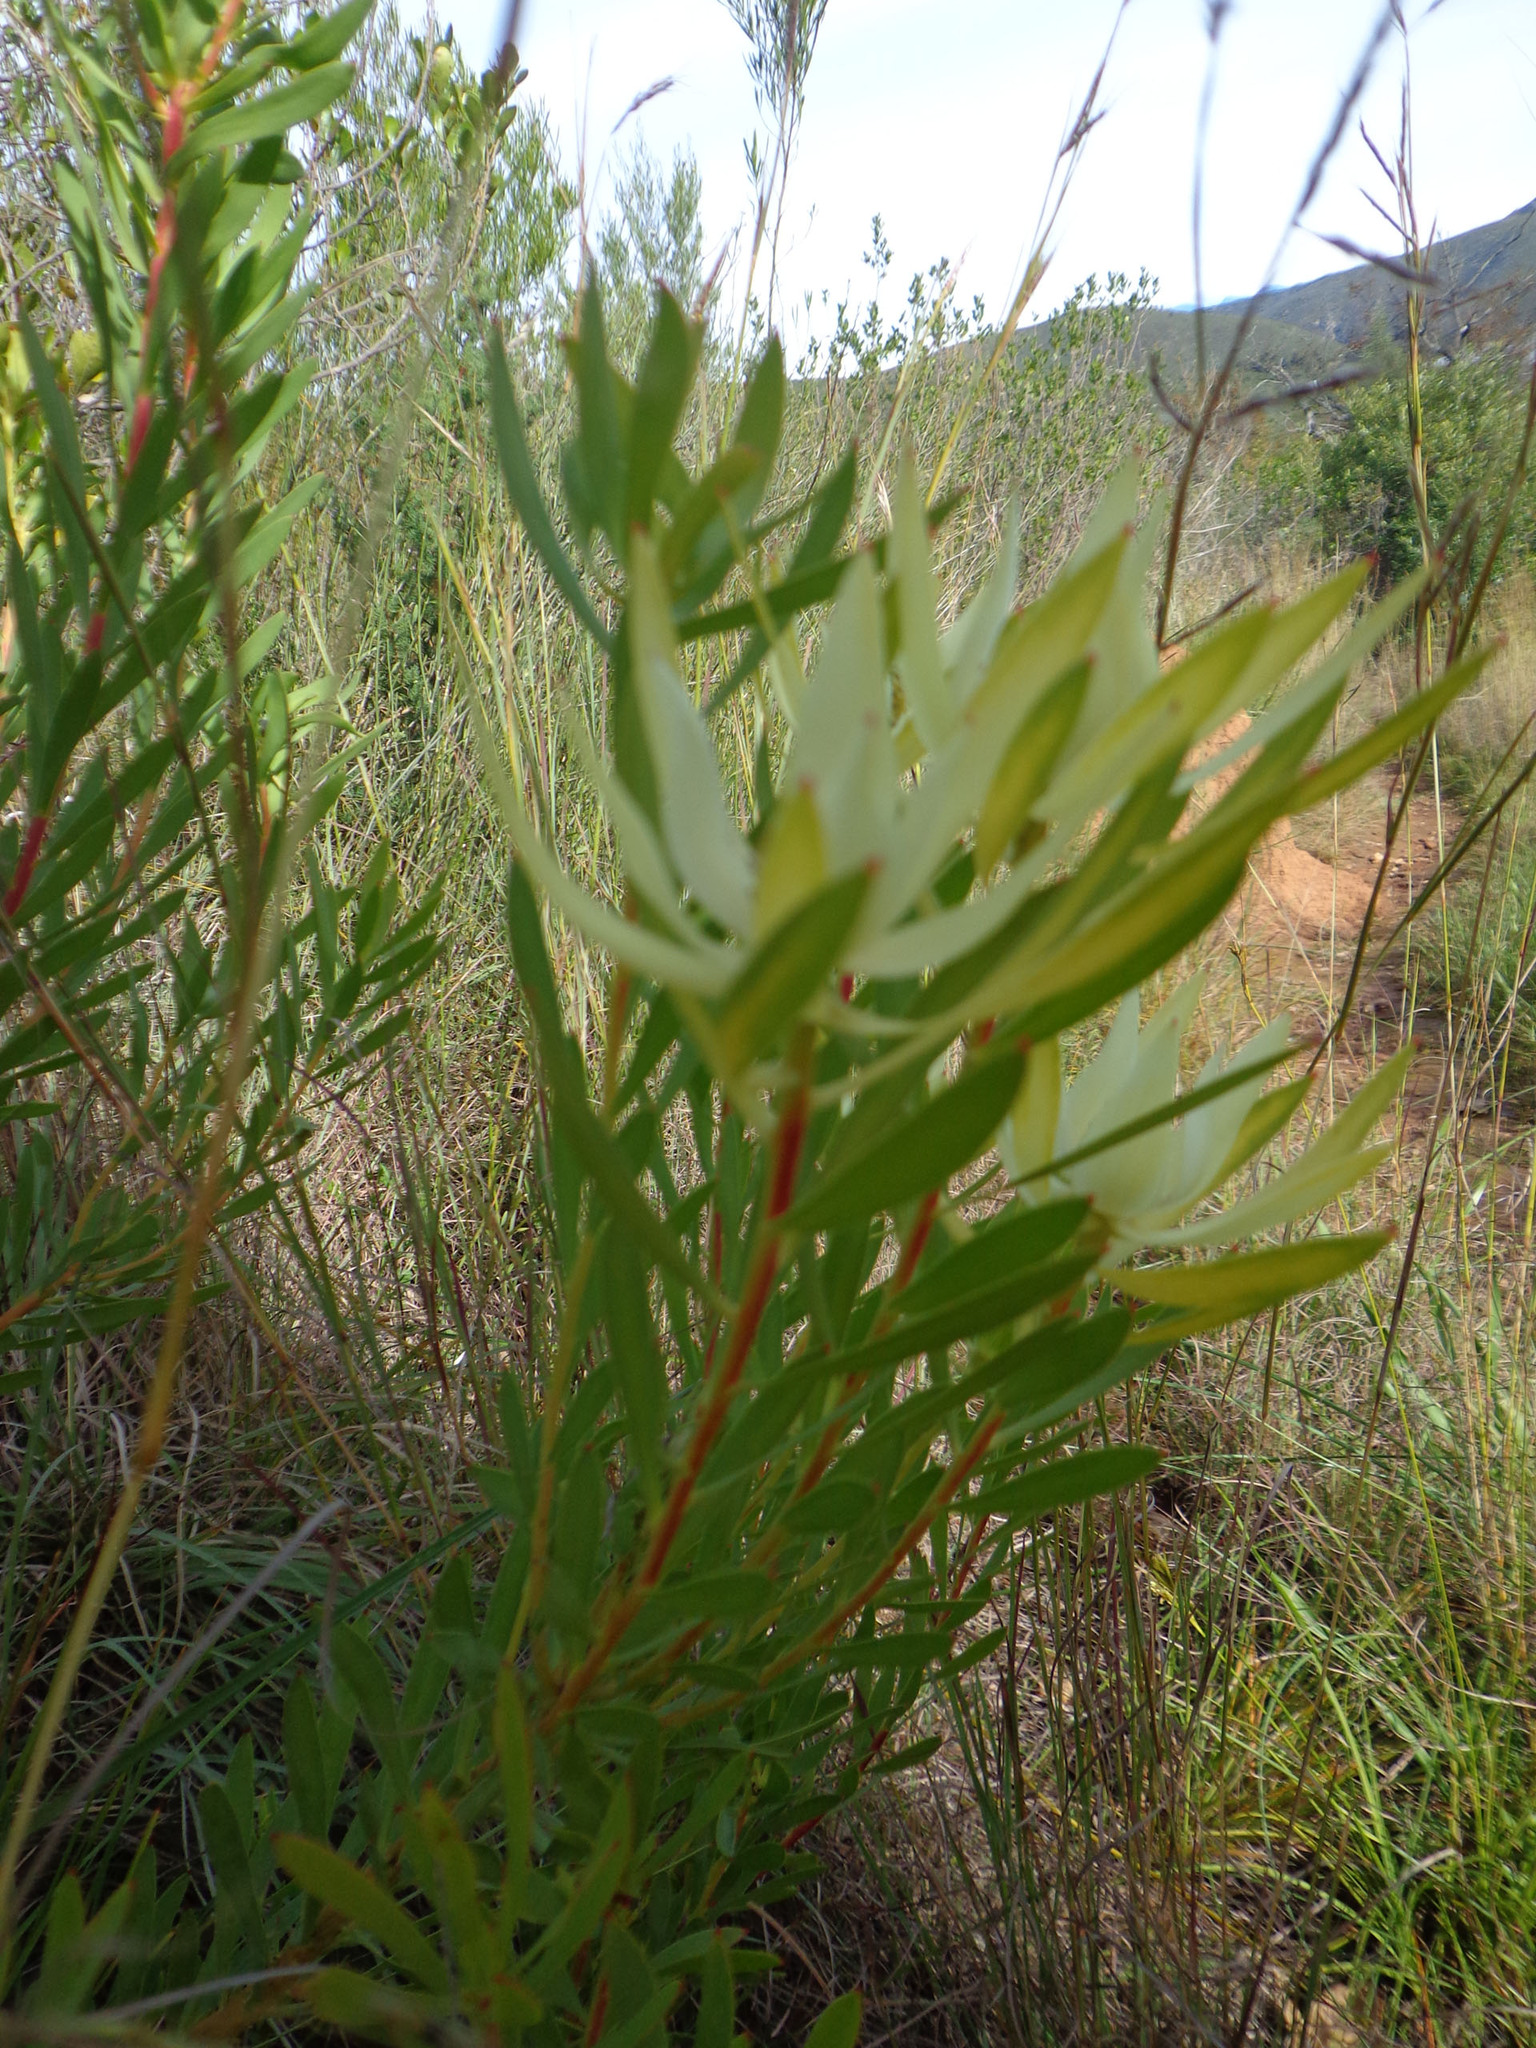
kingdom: Plantae
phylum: Tracheophyta
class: Magnoliopsida
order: Proteales
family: Proteaceae
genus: Leucadendron
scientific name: Leucadendron salignum
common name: Common sunshine conebush
